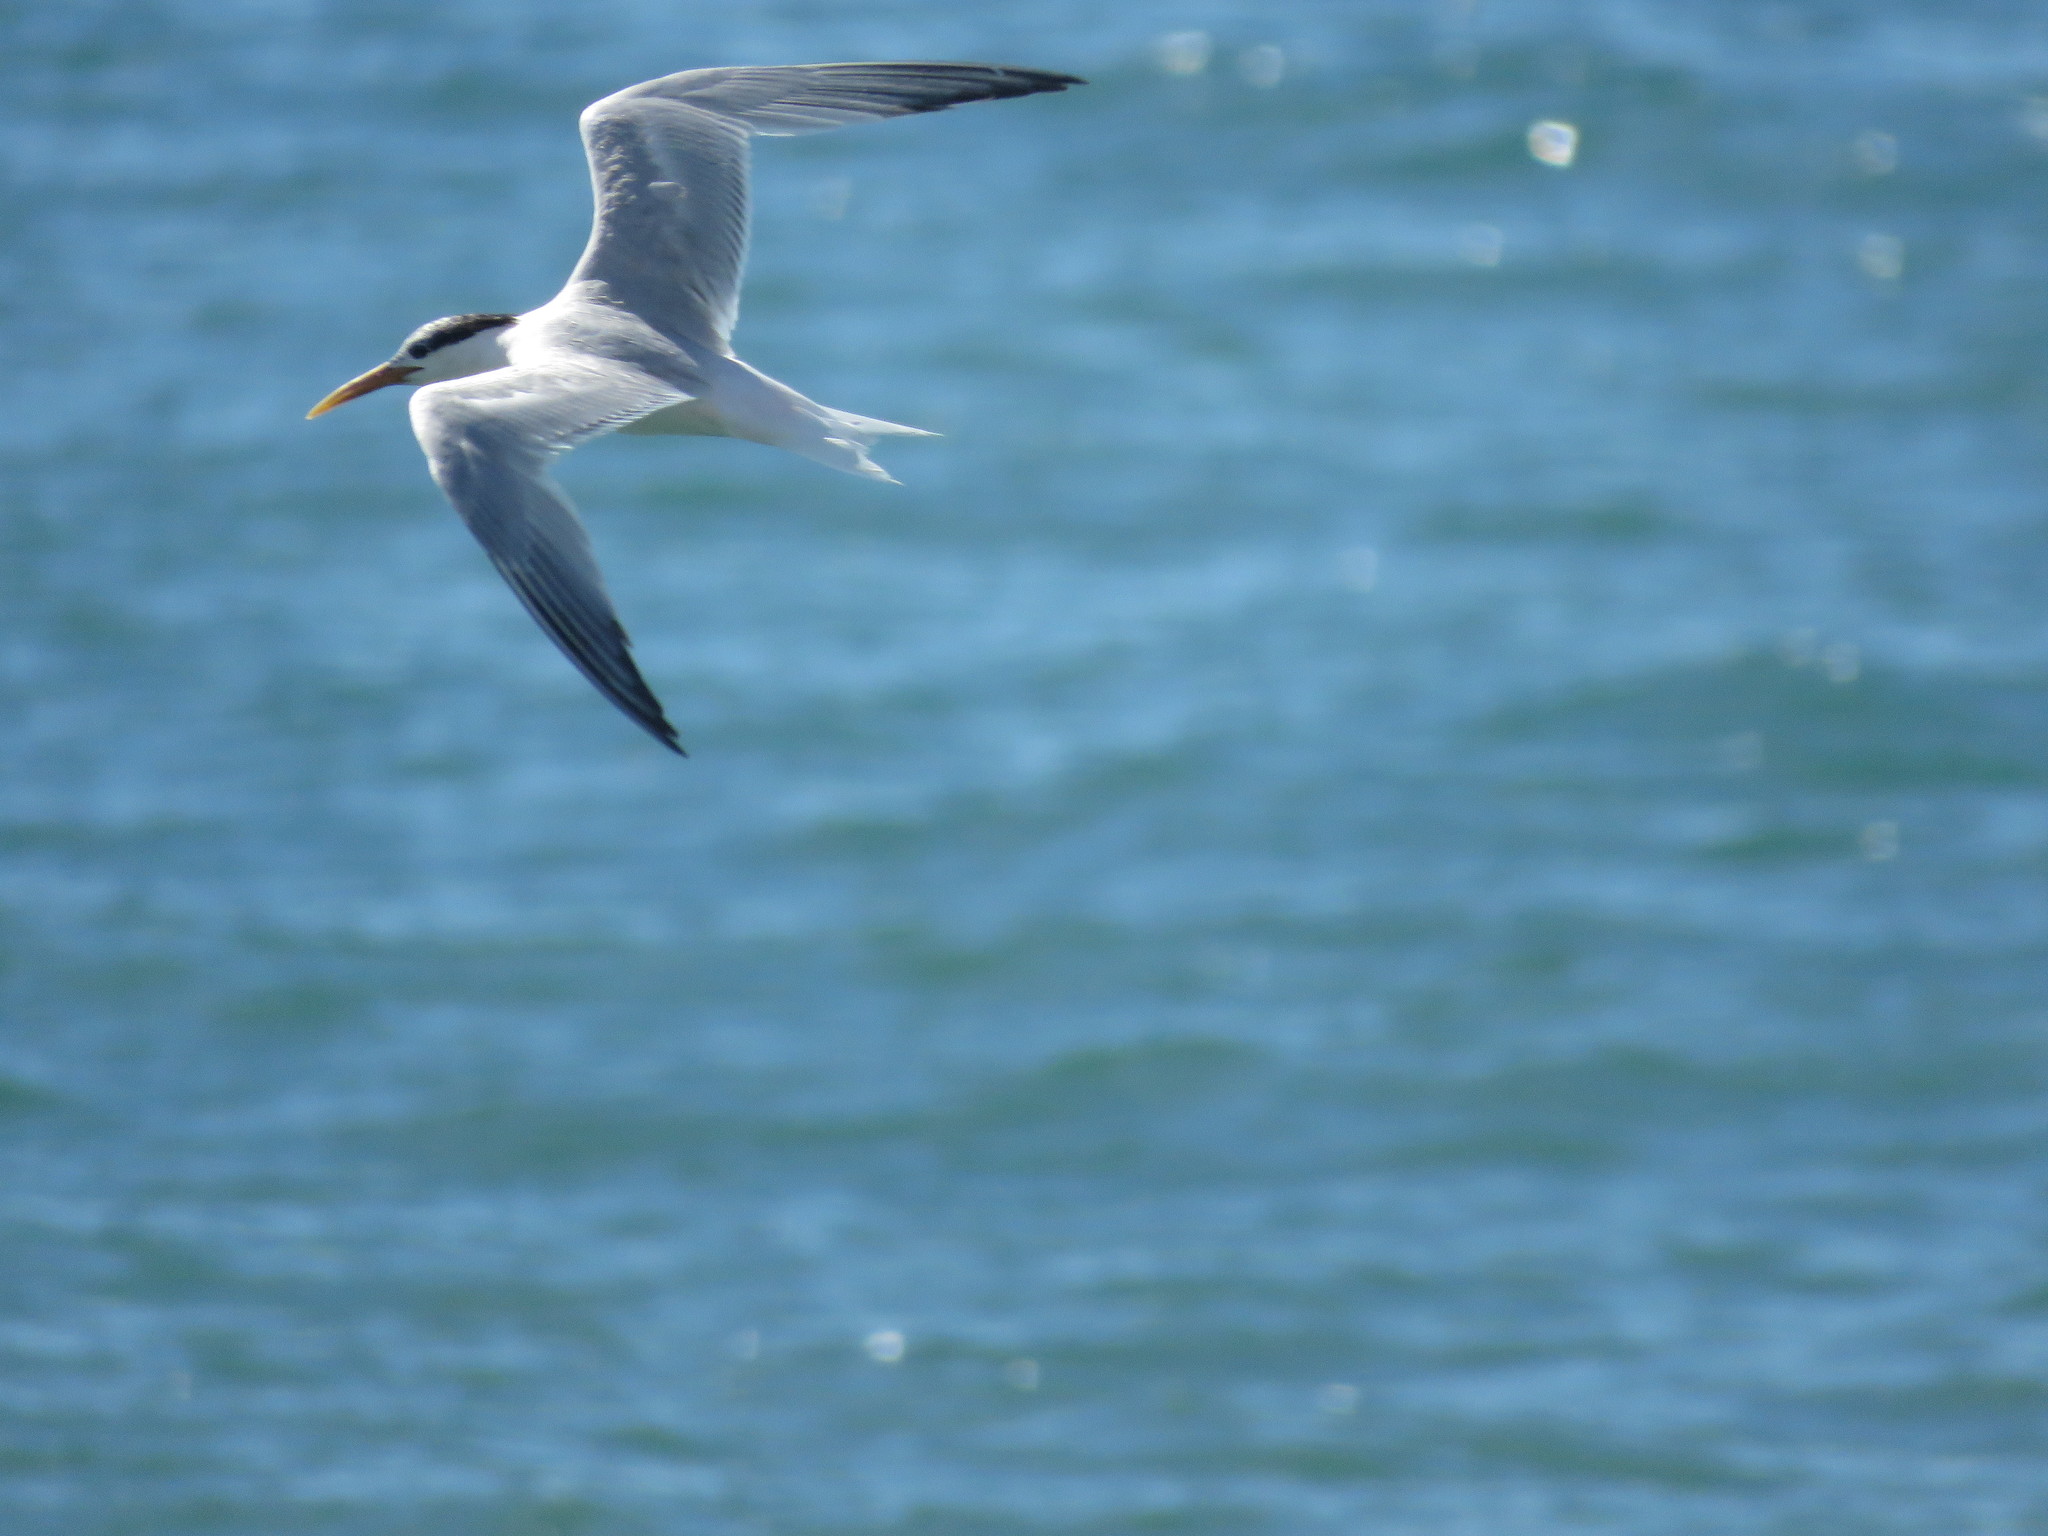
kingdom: Animalia
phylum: Chordata
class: Aves
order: Charadriiformes
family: Laridae
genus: Thalasseus
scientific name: Thalasseus sandvicensis
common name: Sandwich tern
